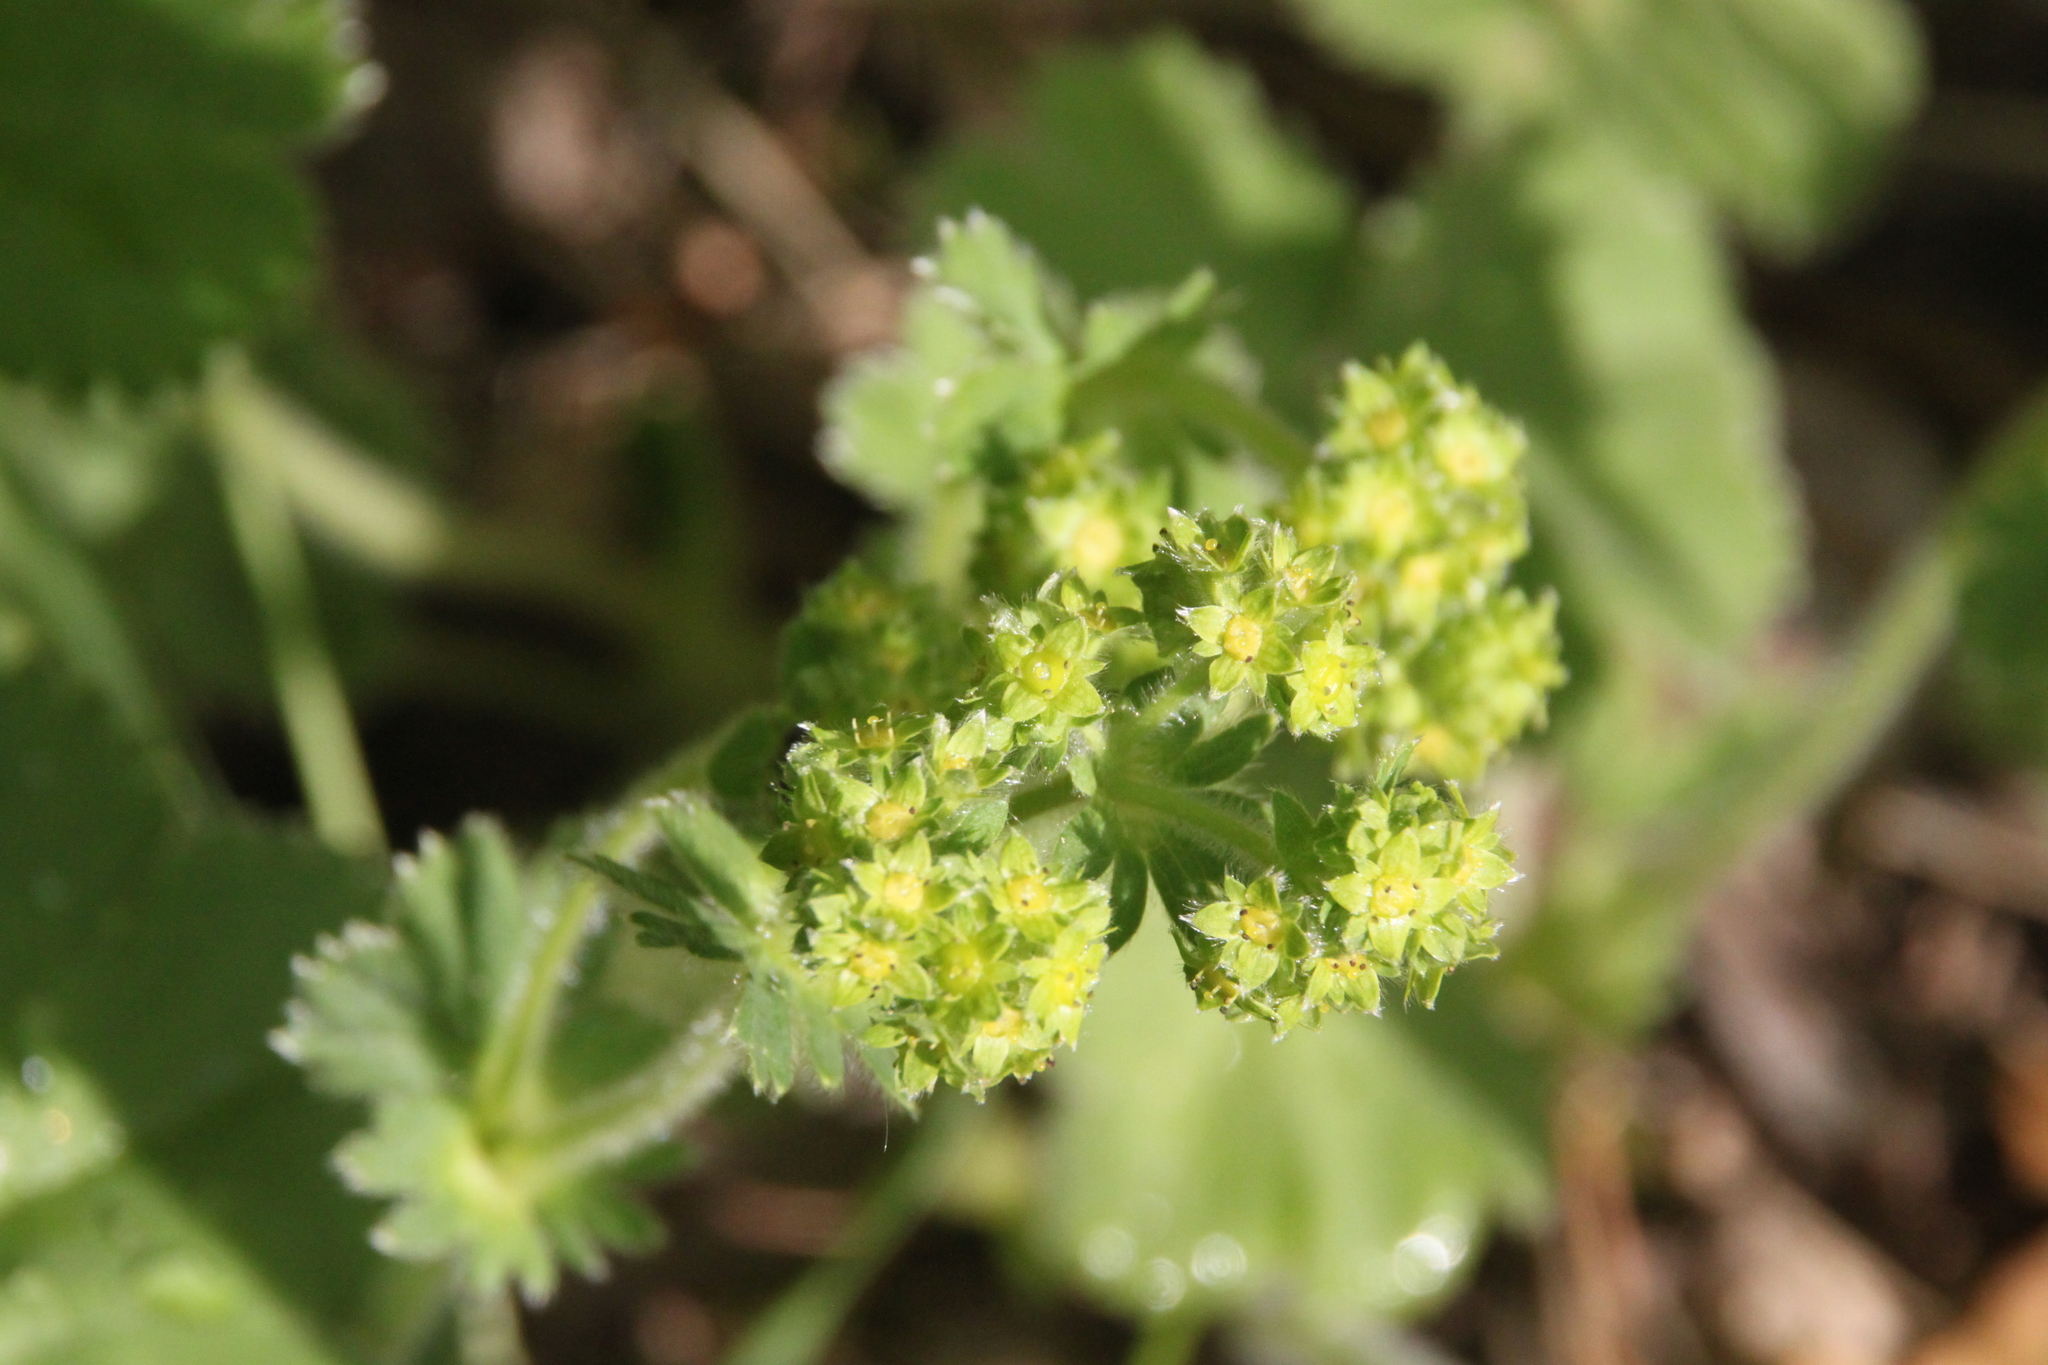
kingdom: Plantae
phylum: Tracheophyta
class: Magnoliopsida
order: Rosales
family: Rosaceae
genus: Alchemilla
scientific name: Alchemilla cheirochlora
